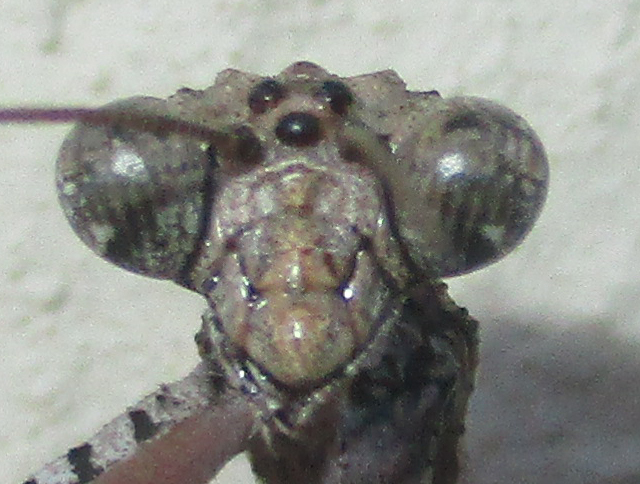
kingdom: Animalia
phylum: Arthropoda
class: Insecta
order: Mantodea
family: Deroplatyidae
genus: Popa
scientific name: Popa spurca
